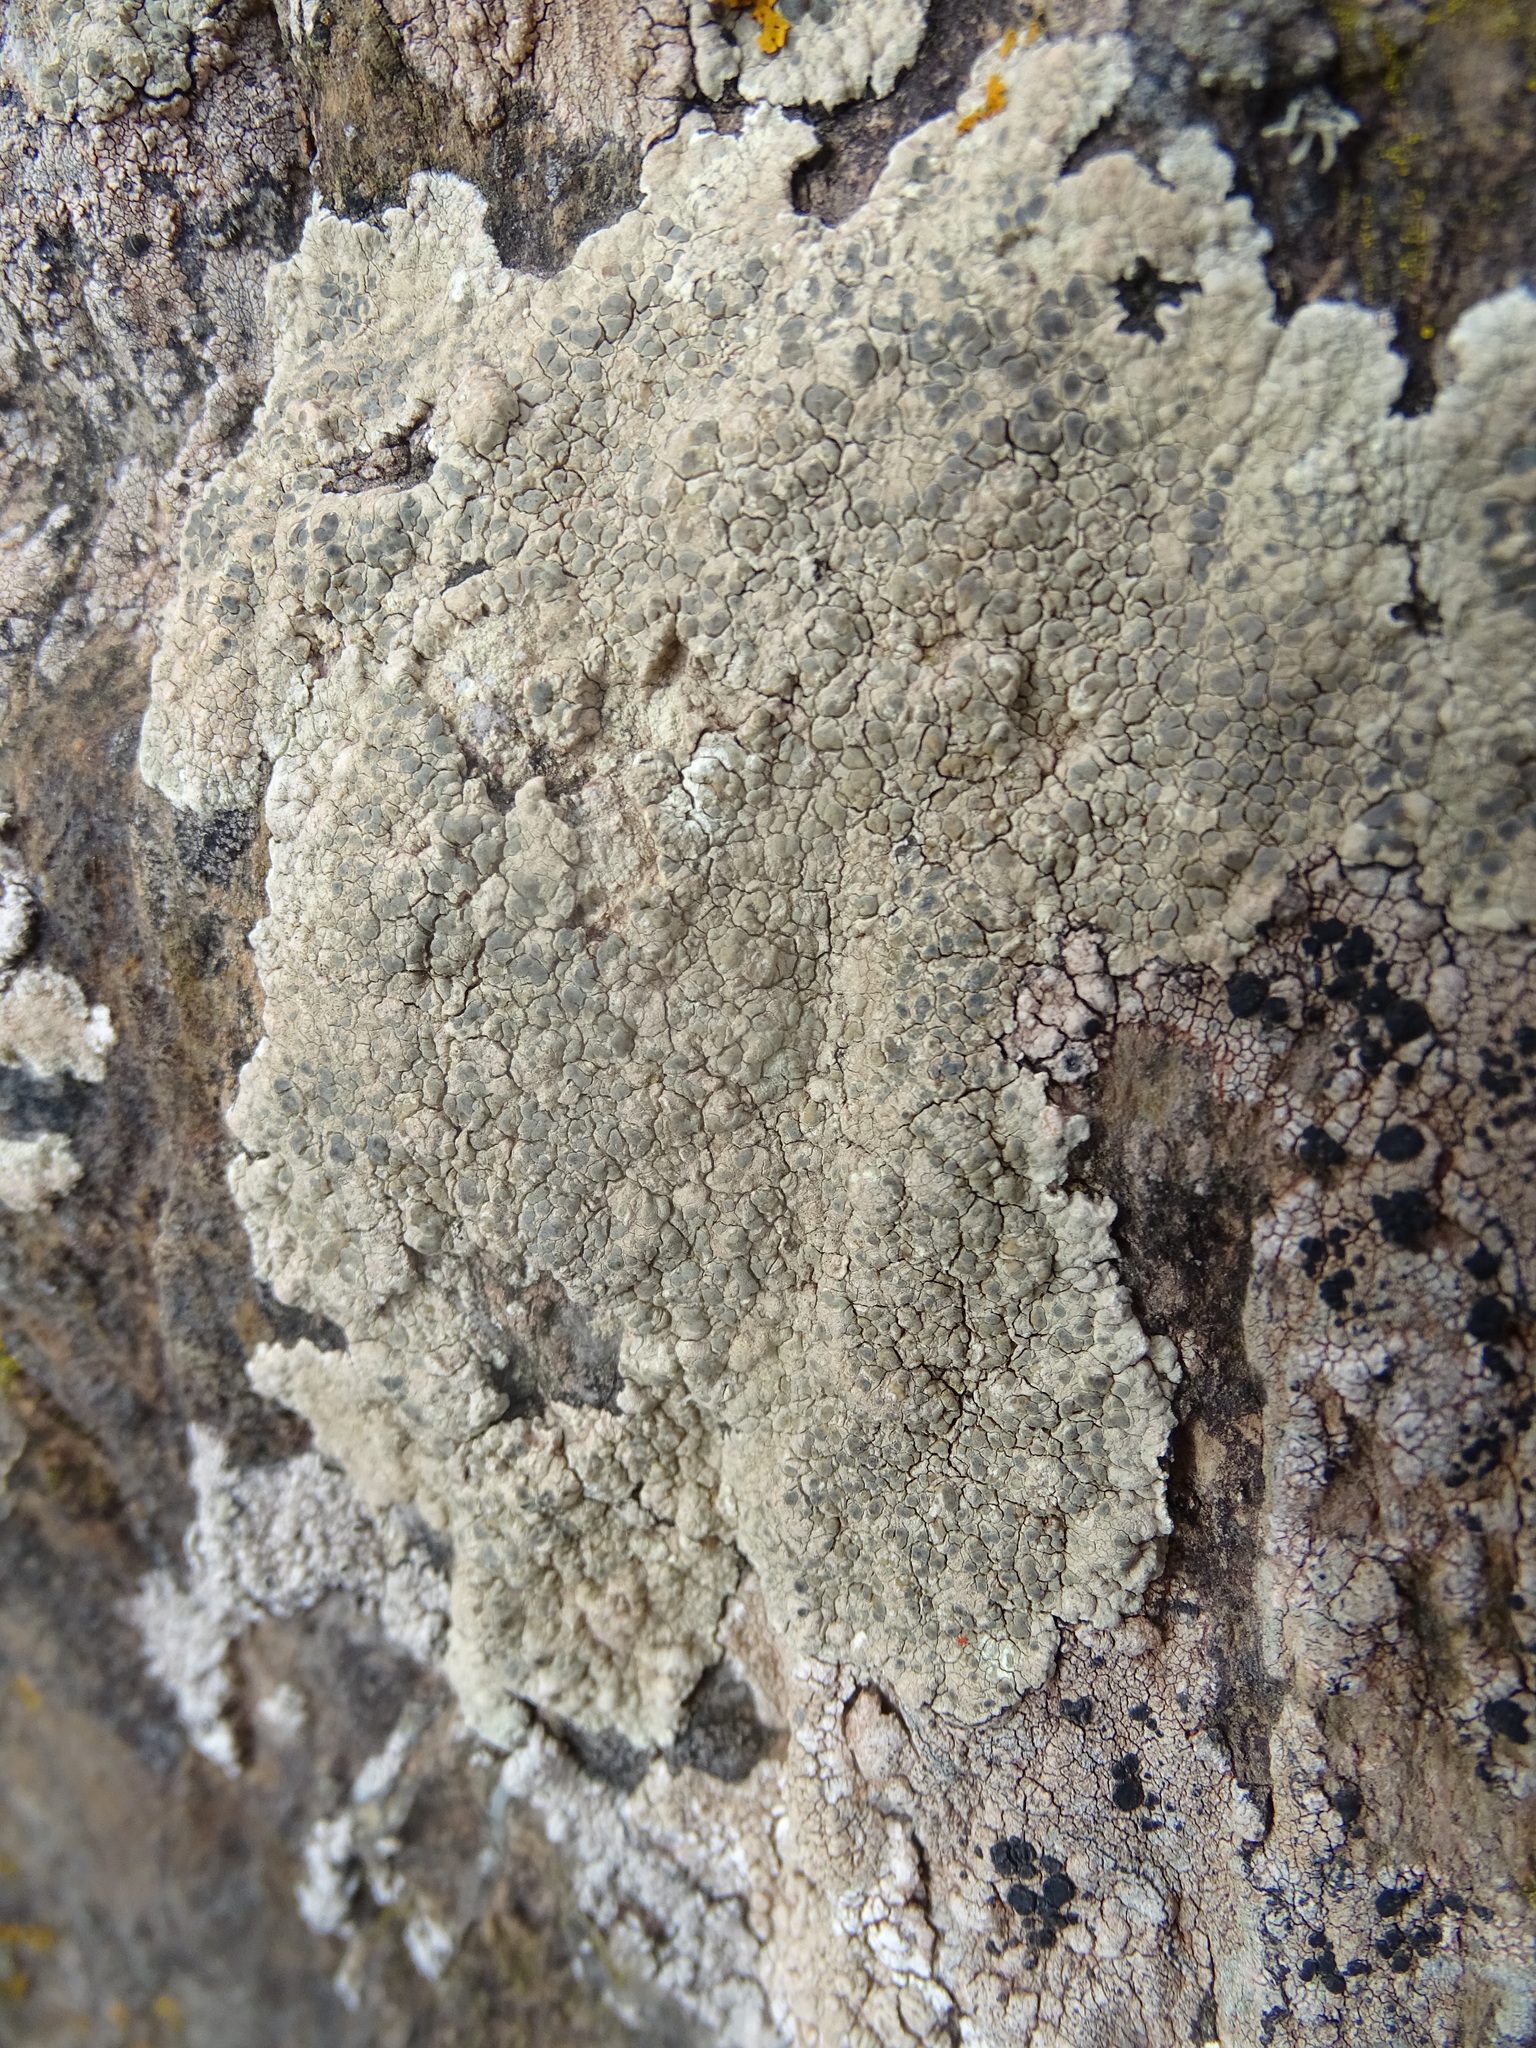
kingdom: Fungi
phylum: Ascomycota
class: Lecanoromycetes
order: Lecanorales
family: Lecanoraceae
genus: Glaucomaria
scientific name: Glaucomaria sulphurea
